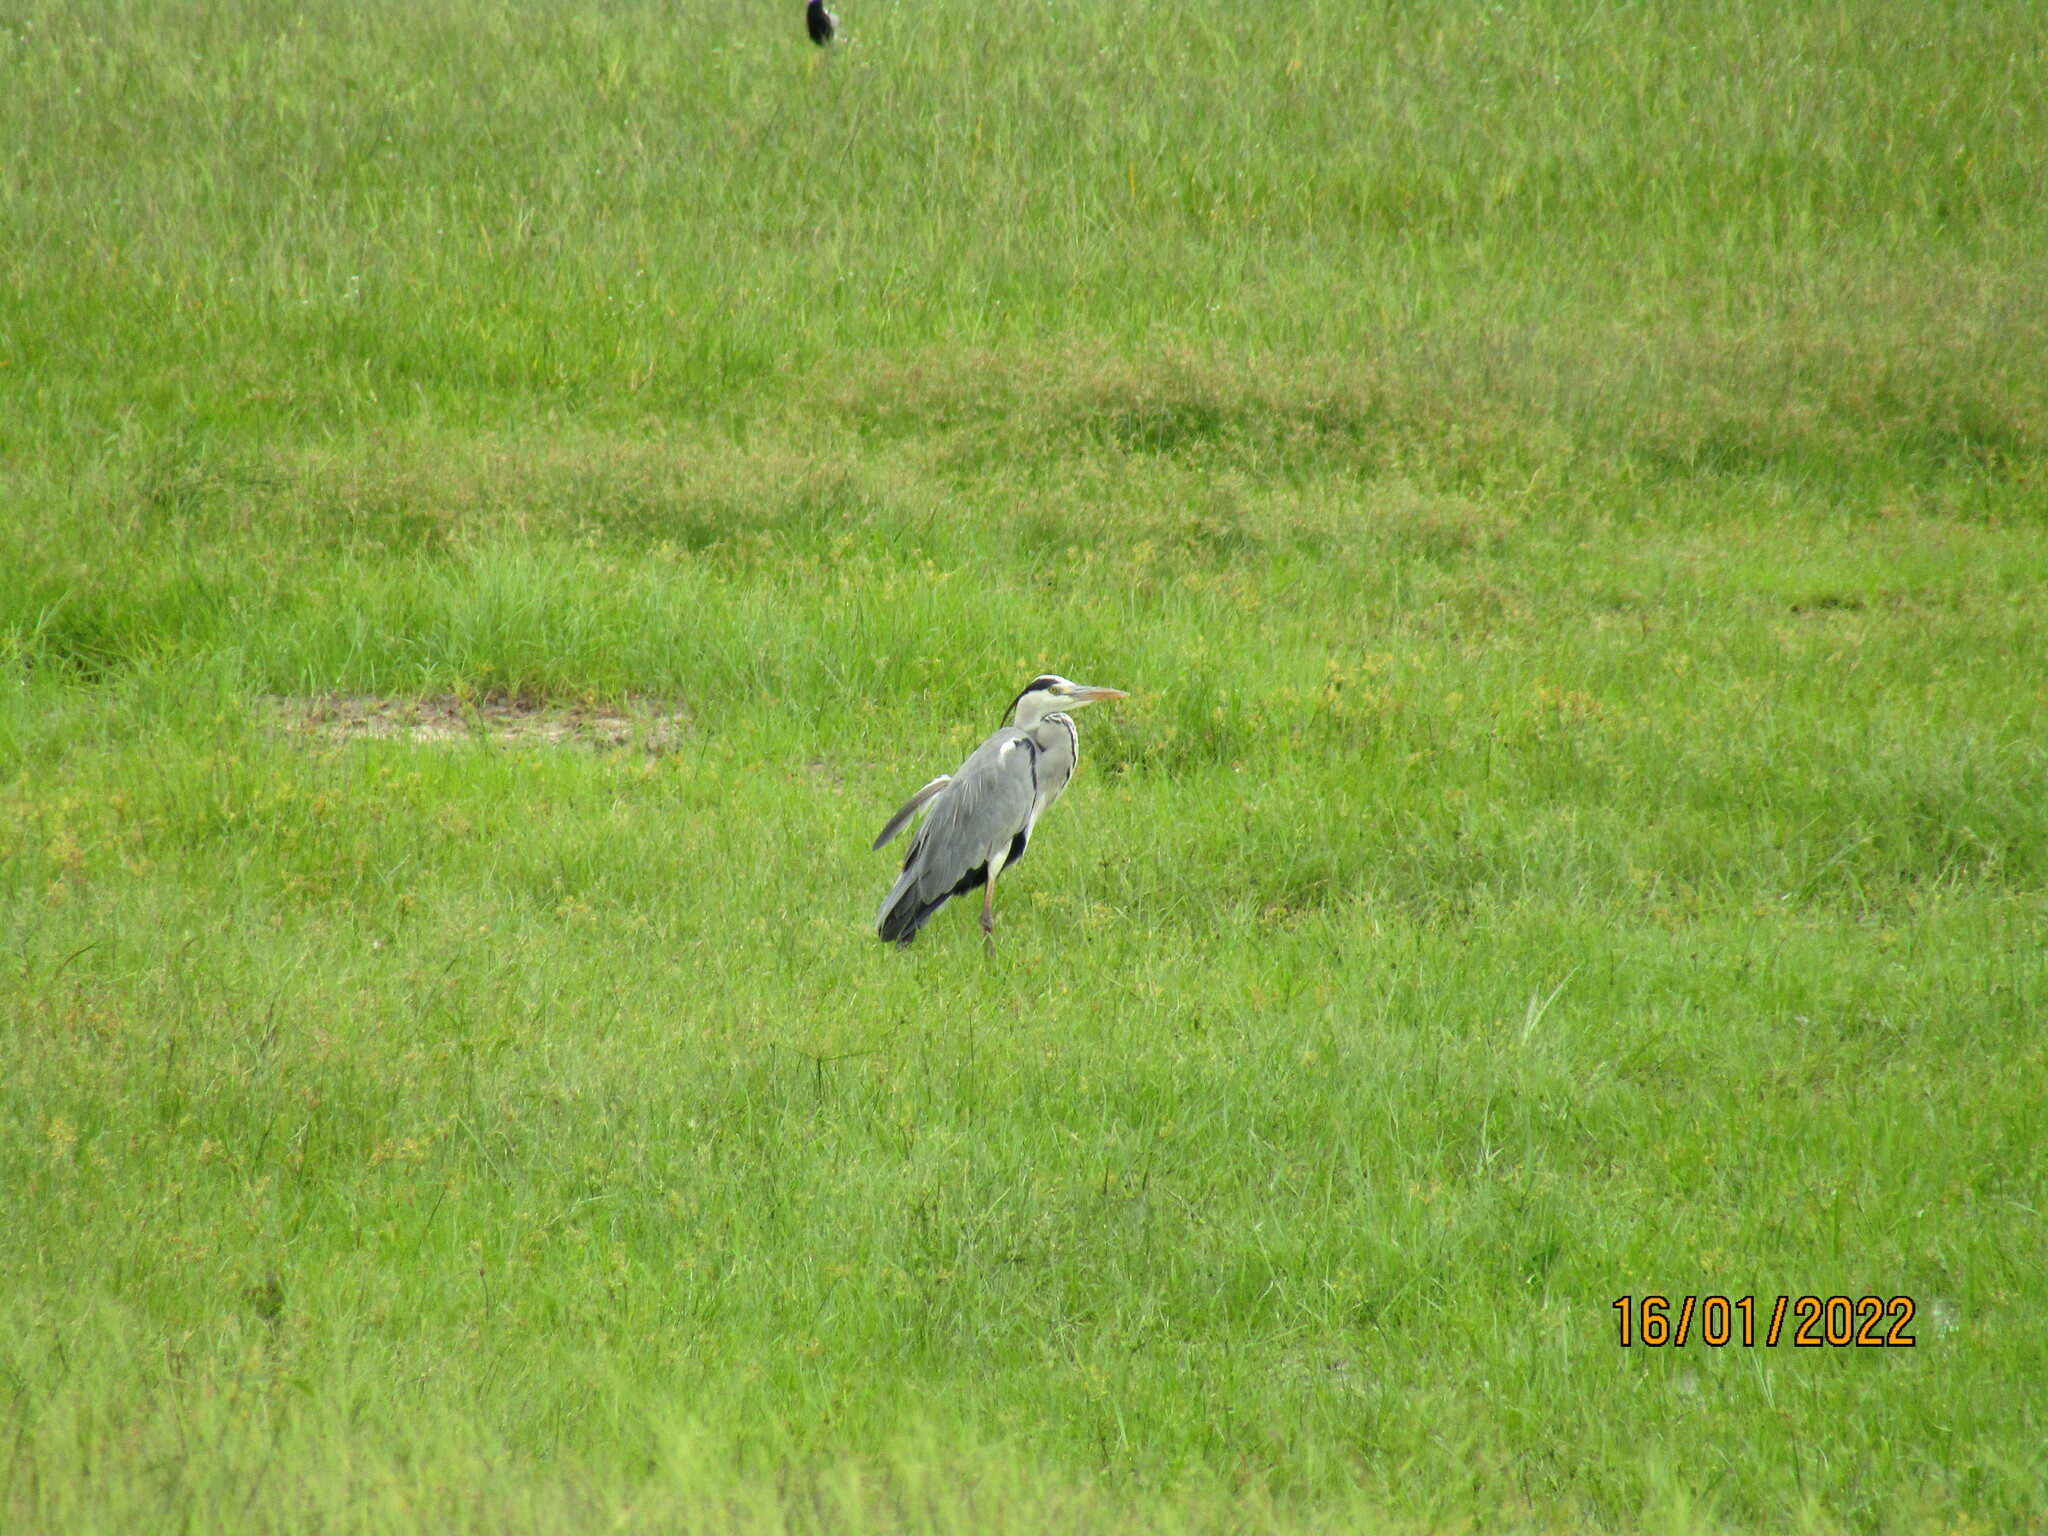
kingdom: Animalia
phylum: Chordata
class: Aves
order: Pelecaniformes
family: Ardeidae
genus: Ardea
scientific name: Ardea cinerea
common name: Grey heron
